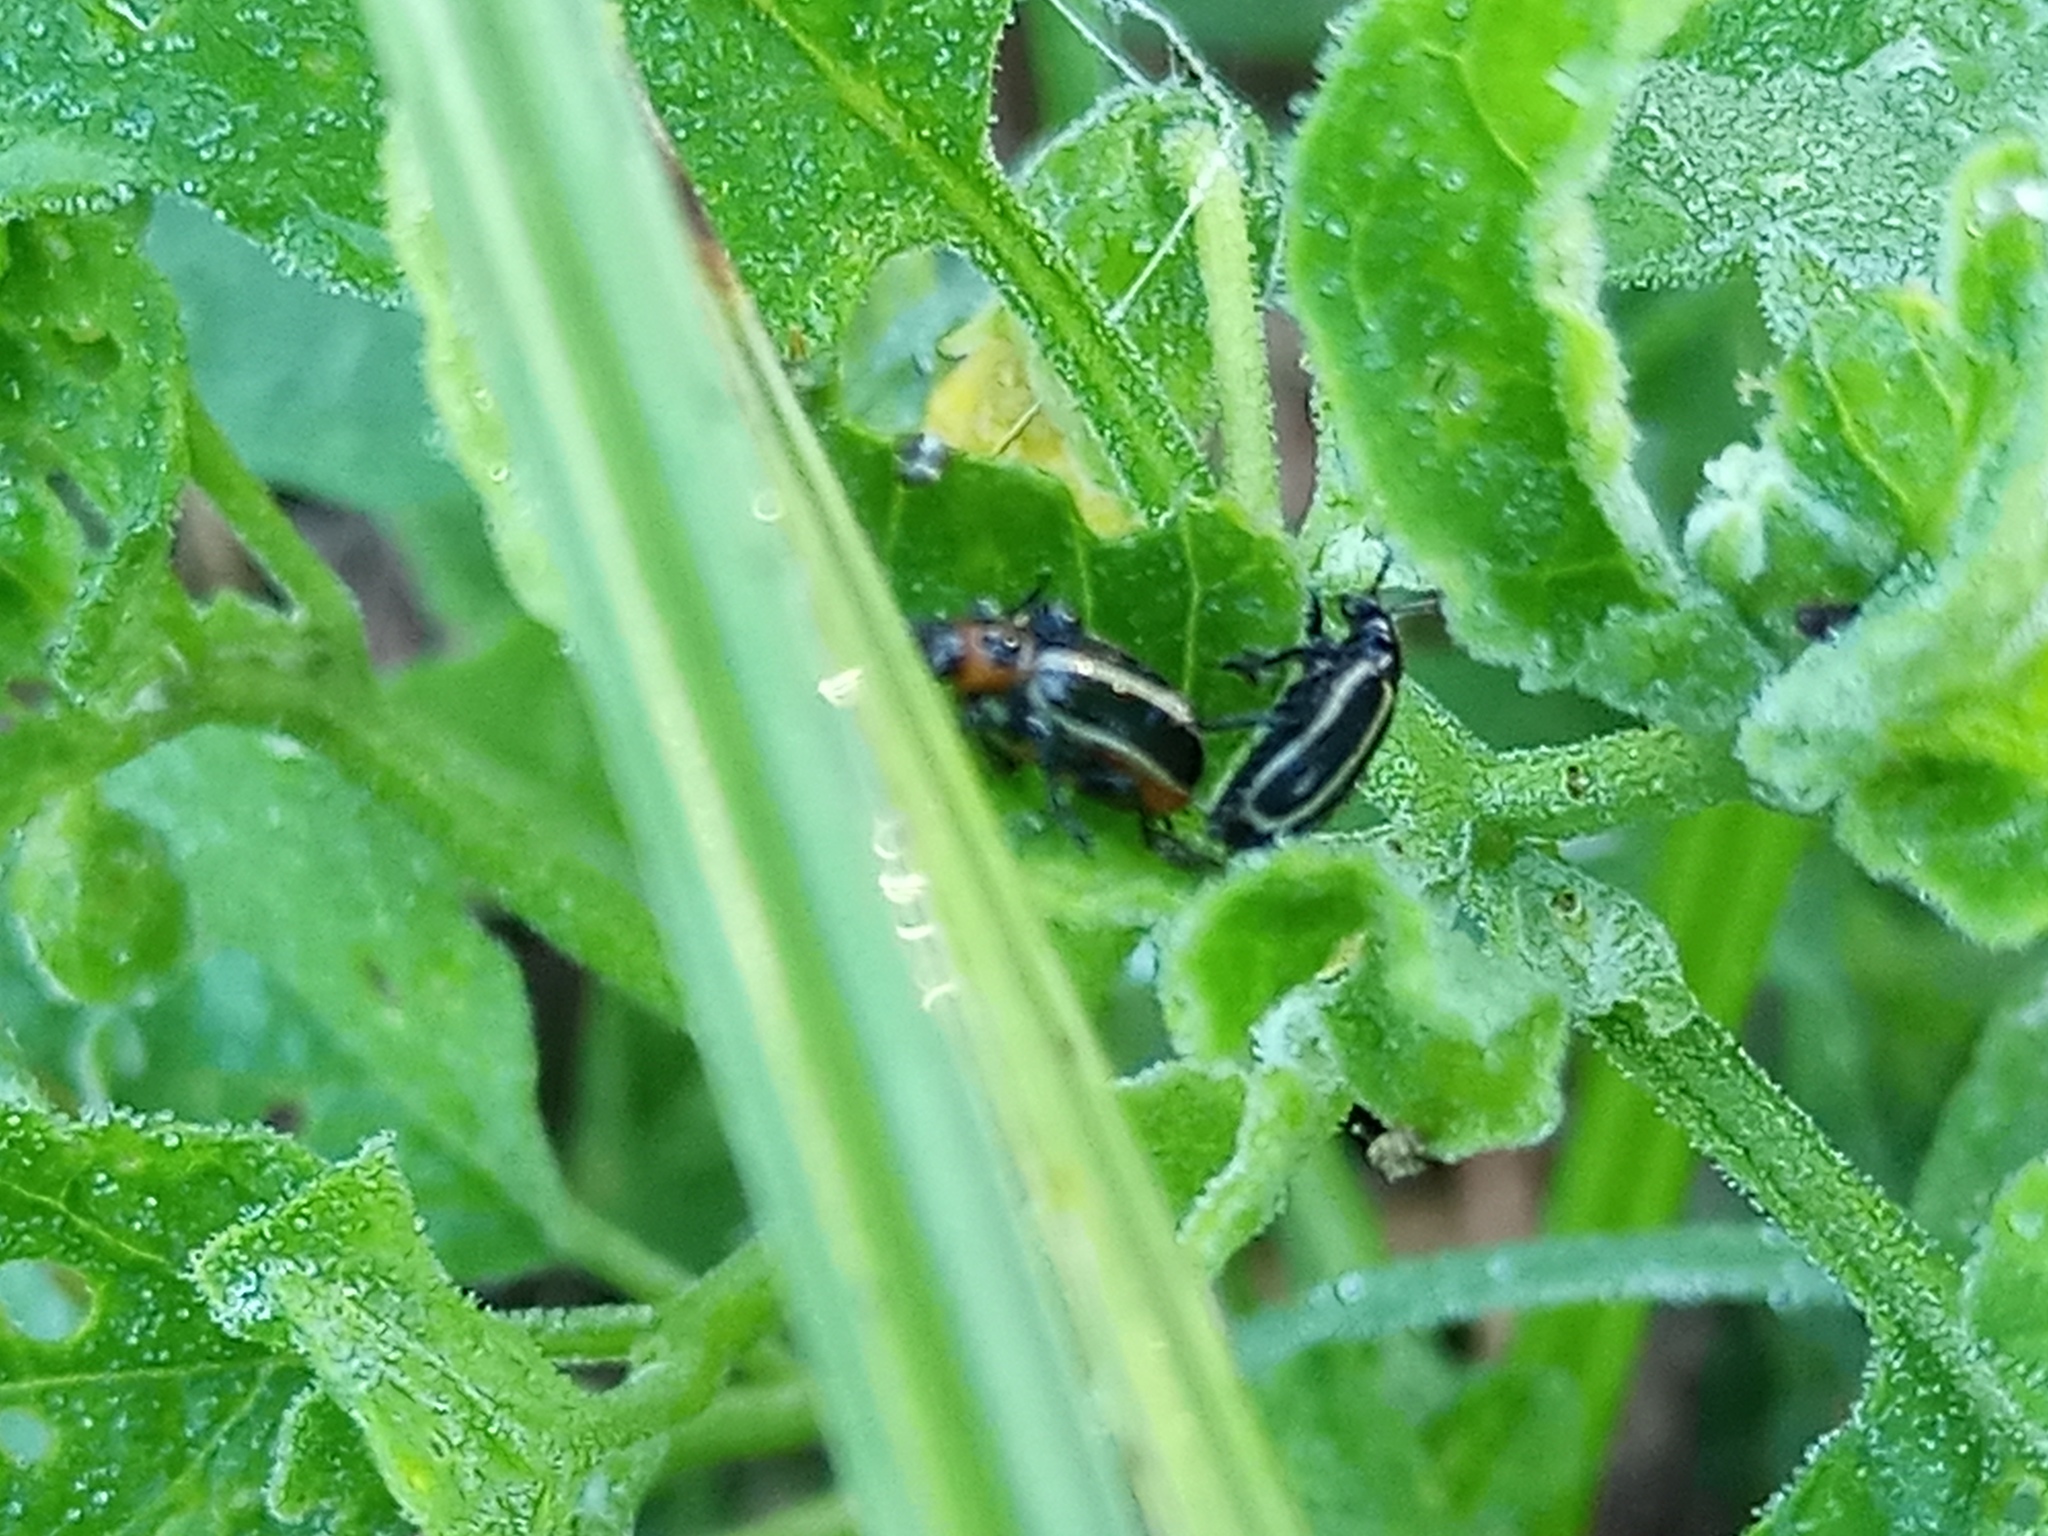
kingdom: Animalia
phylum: Arthropoda
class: Insecta
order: Coleoptera
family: Chrysomelidae
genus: Lema
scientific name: Lema bilineata
